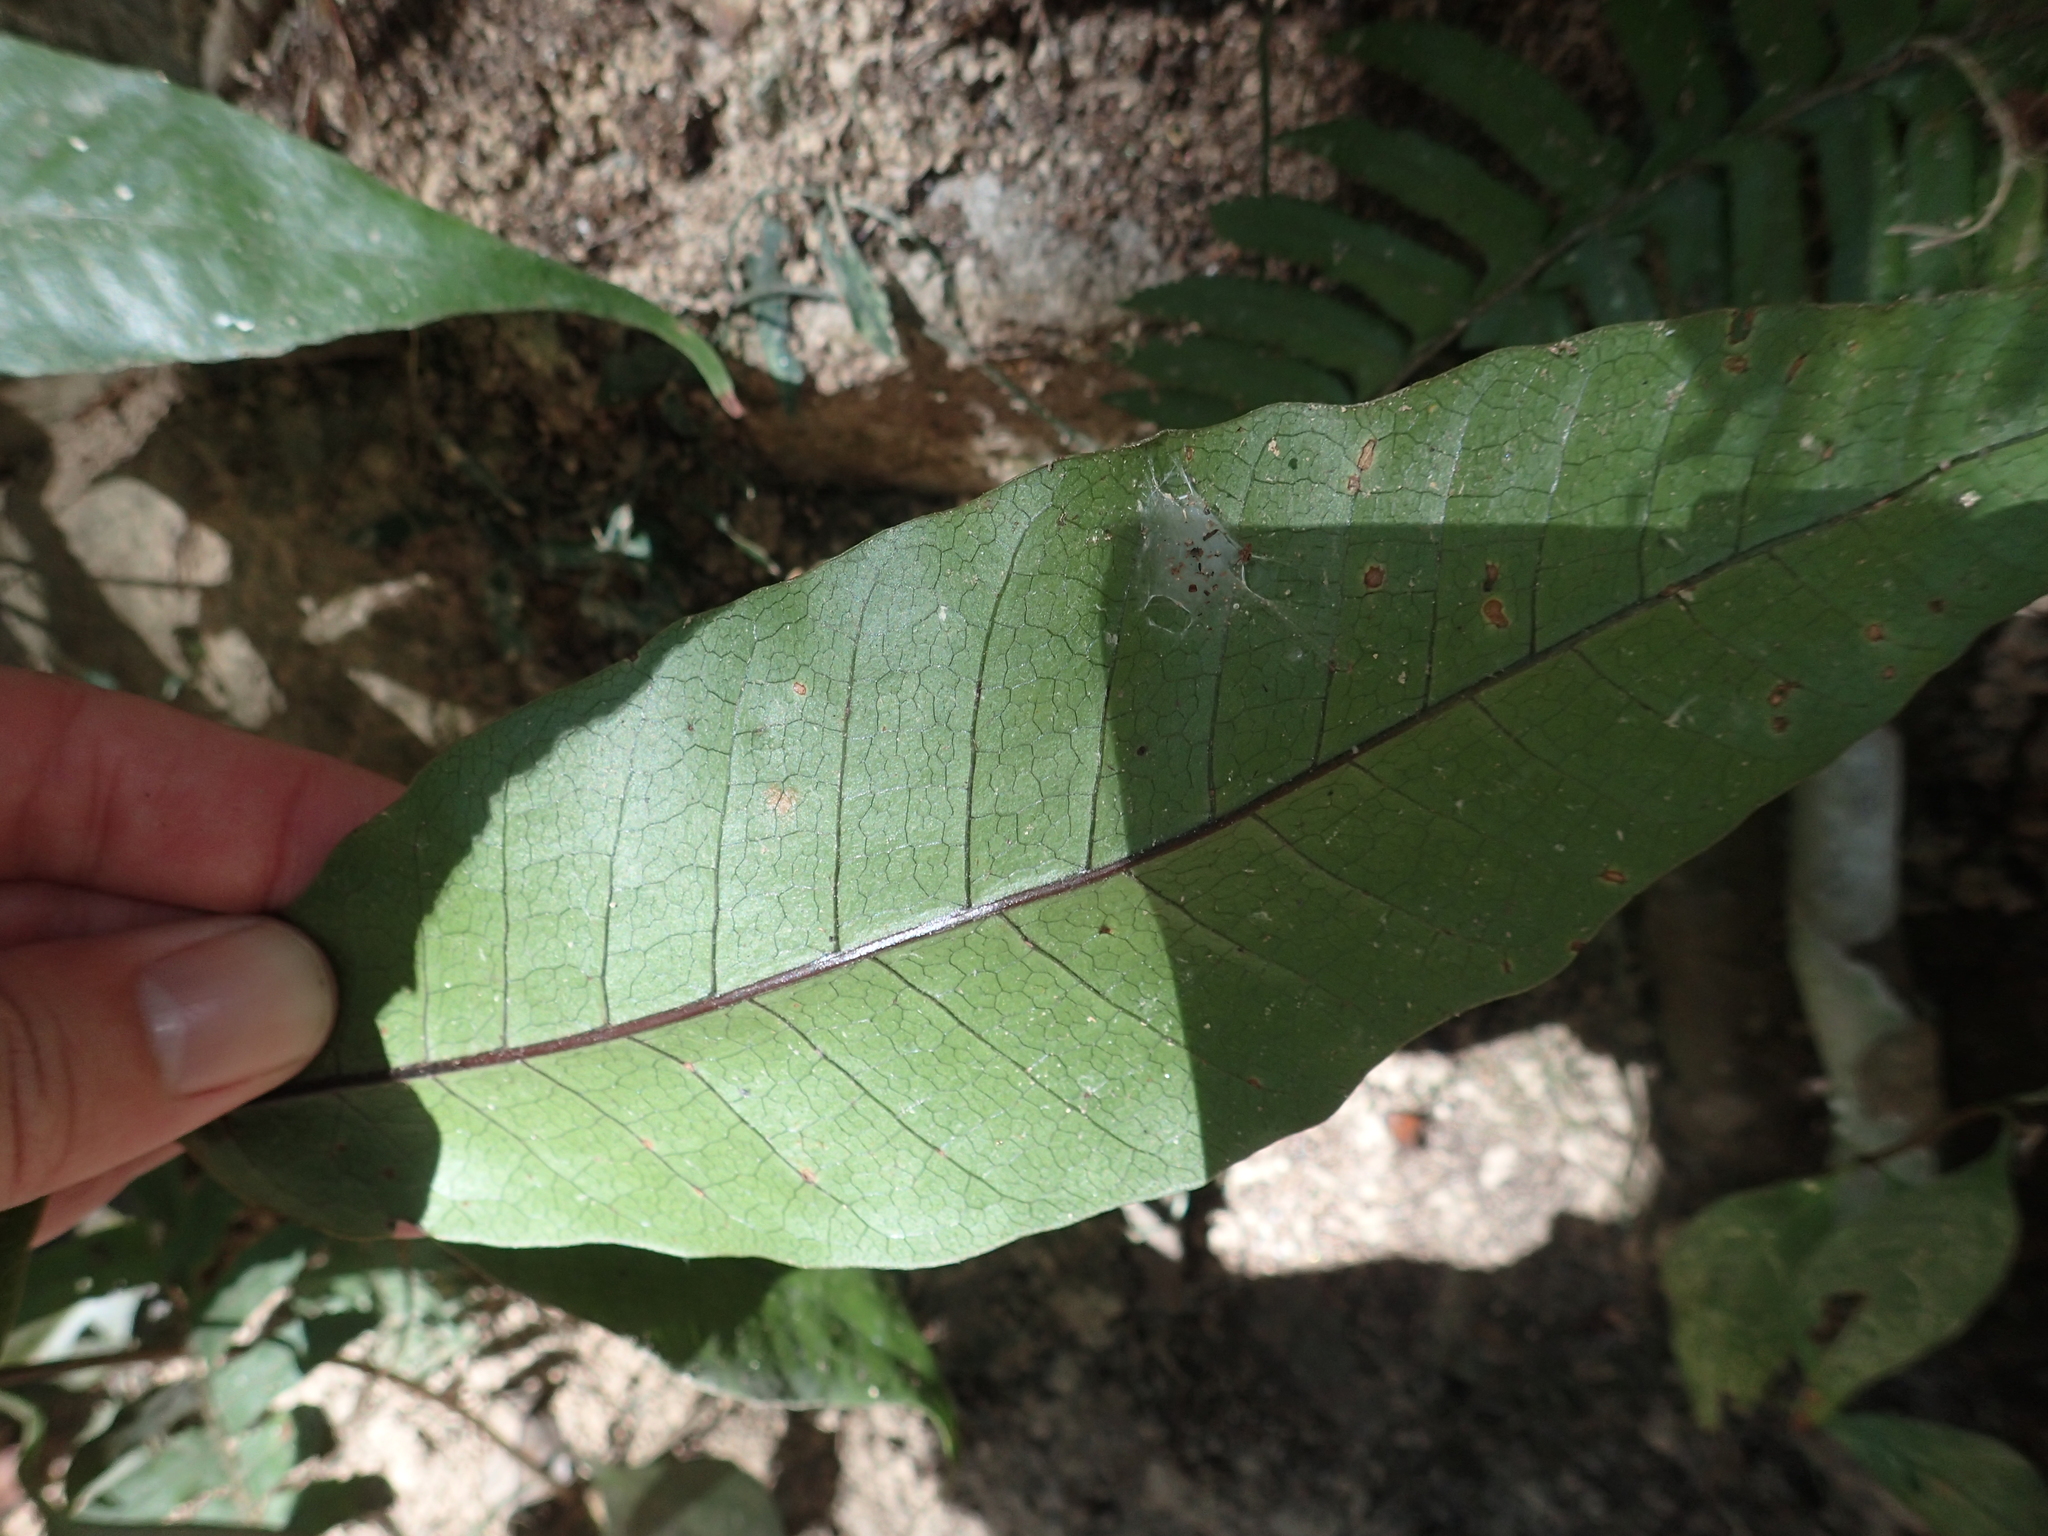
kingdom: Plantae
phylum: Tracheophyta
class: Polypodiopsida
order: Polypodiales
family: Tectariaceae
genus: Tectaria
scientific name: Tectaria harlandii
